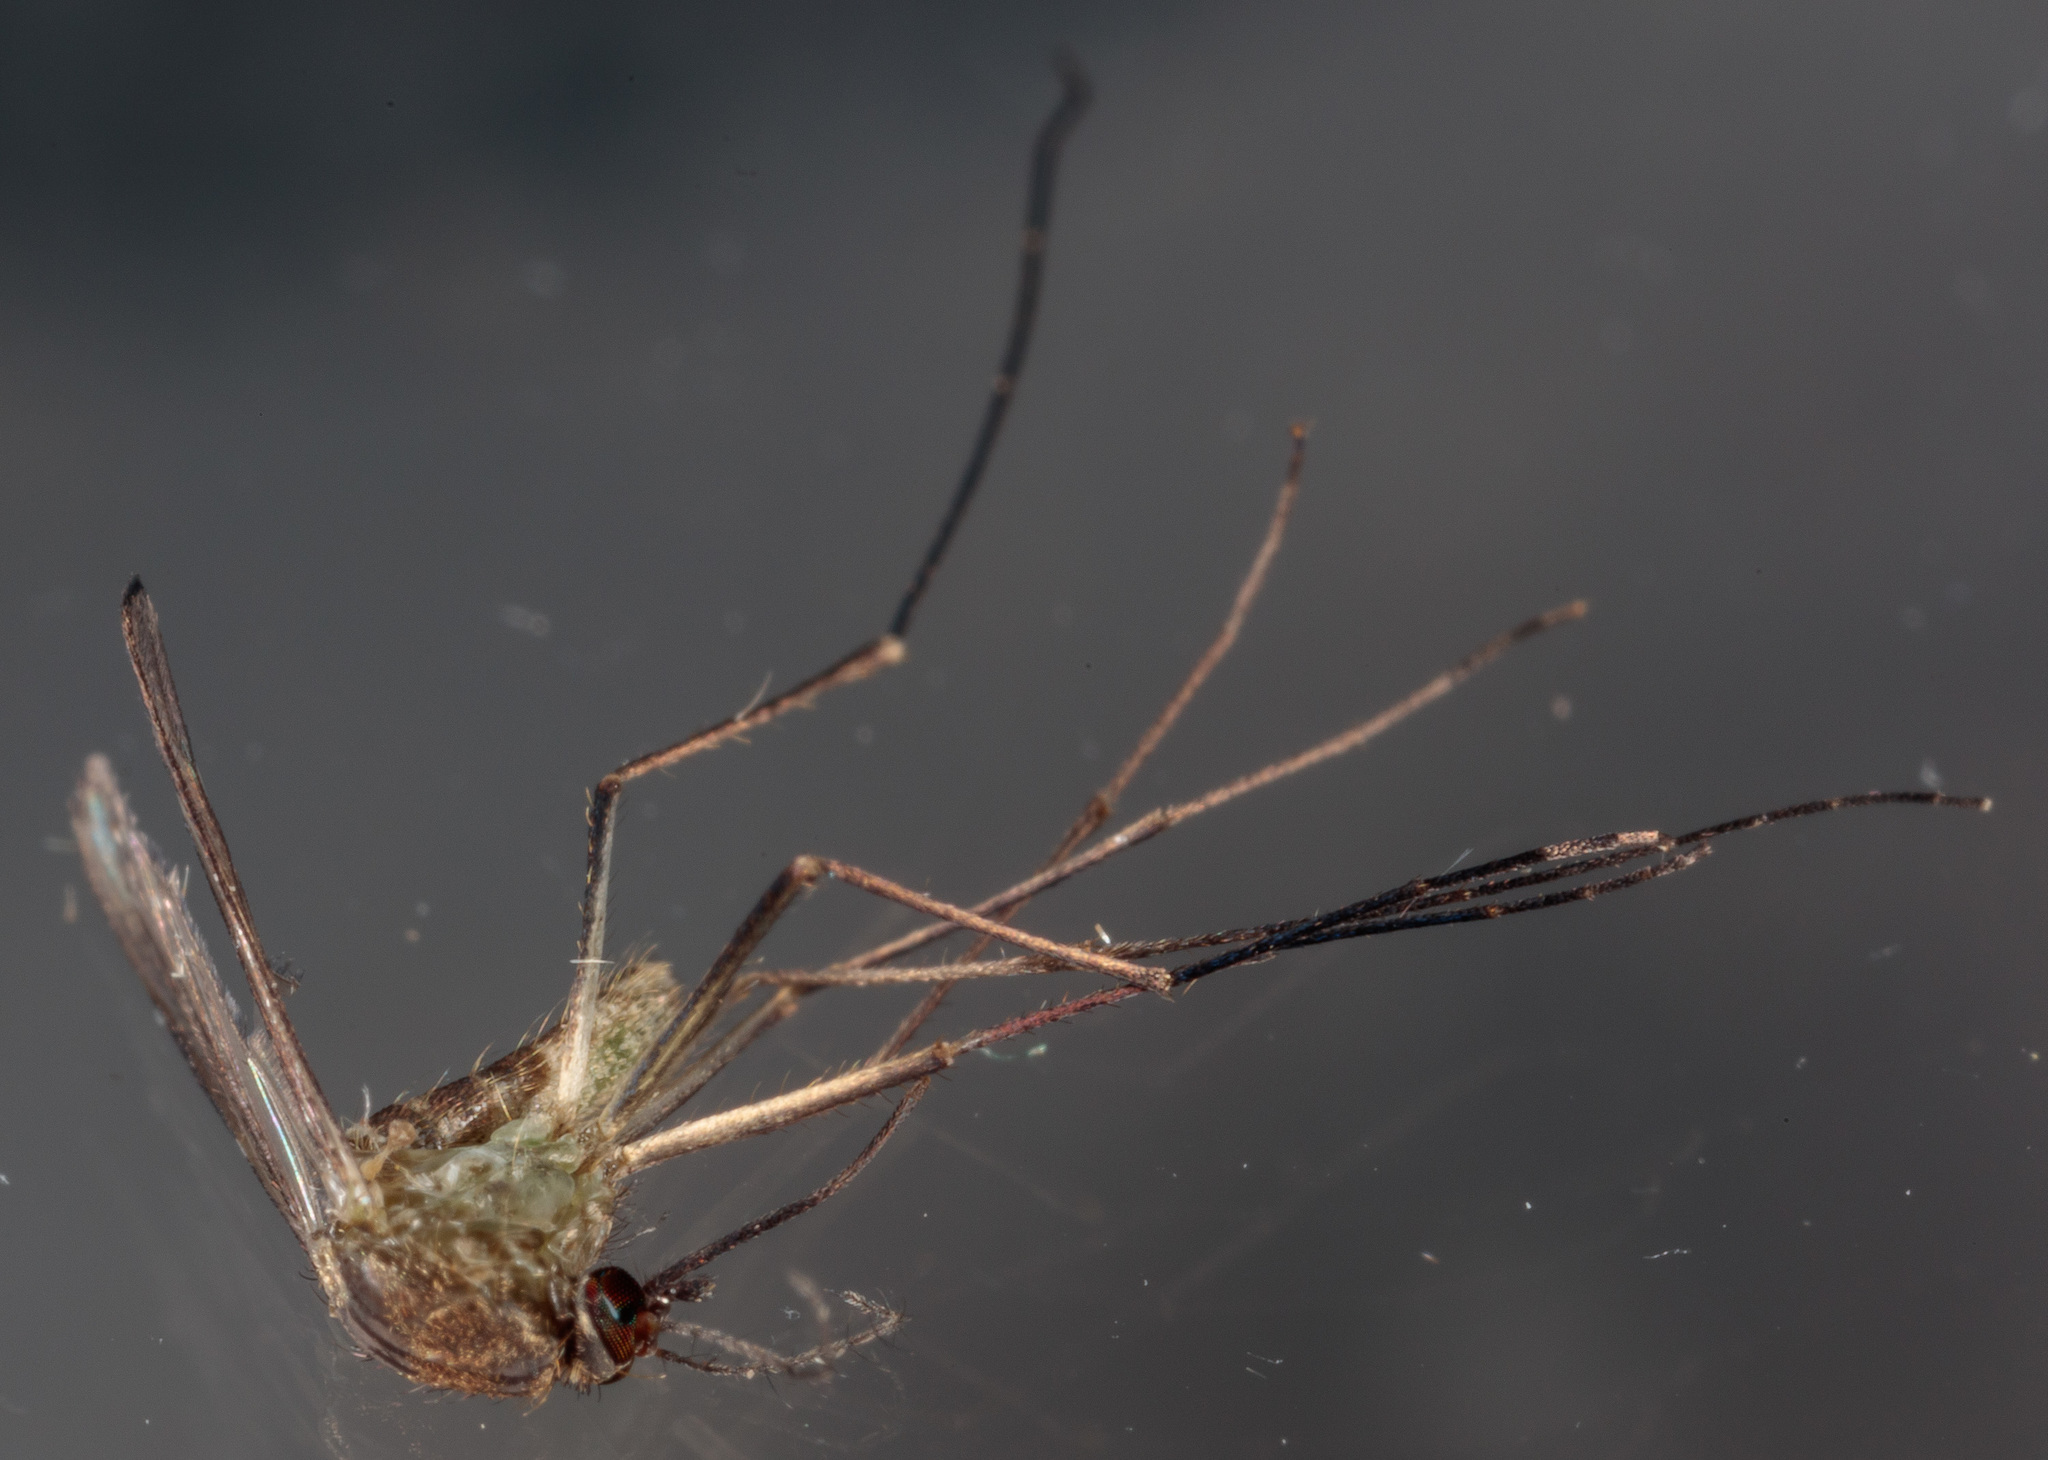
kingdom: Animalia
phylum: Arthropoda
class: Insecta
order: Diptera
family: Culicidae
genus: Culex
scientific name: Culex erraticus
